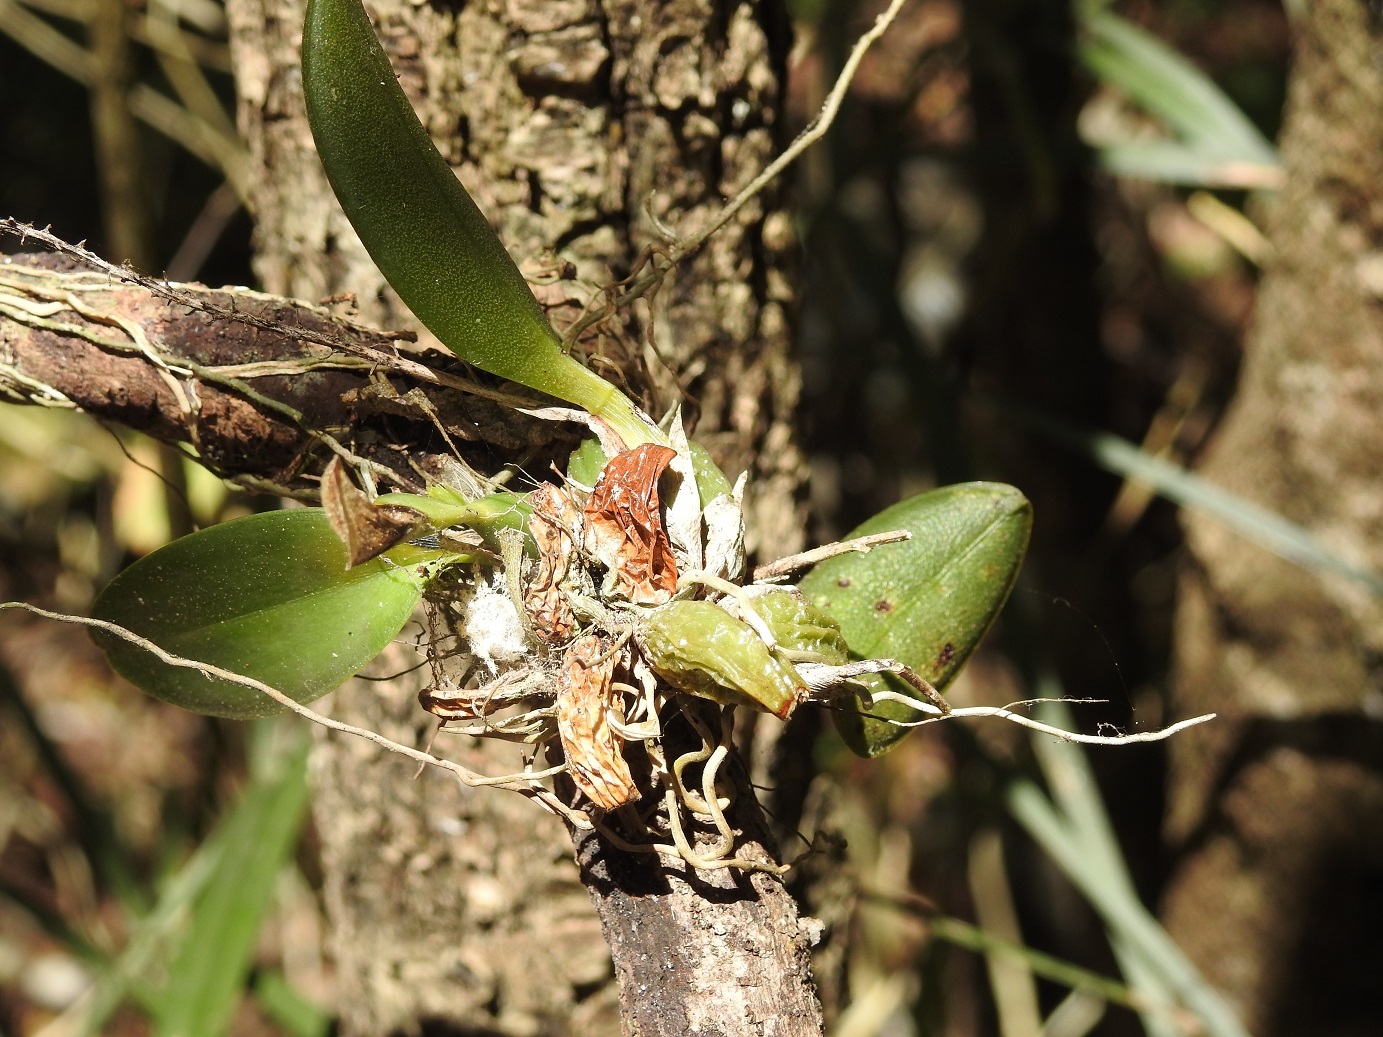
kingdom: Plantae
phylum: Tracheophyta
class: Liliopsida
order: Asparagales
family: Orchidaceae
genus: Leochilus
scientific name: Leochilus oncidioides
